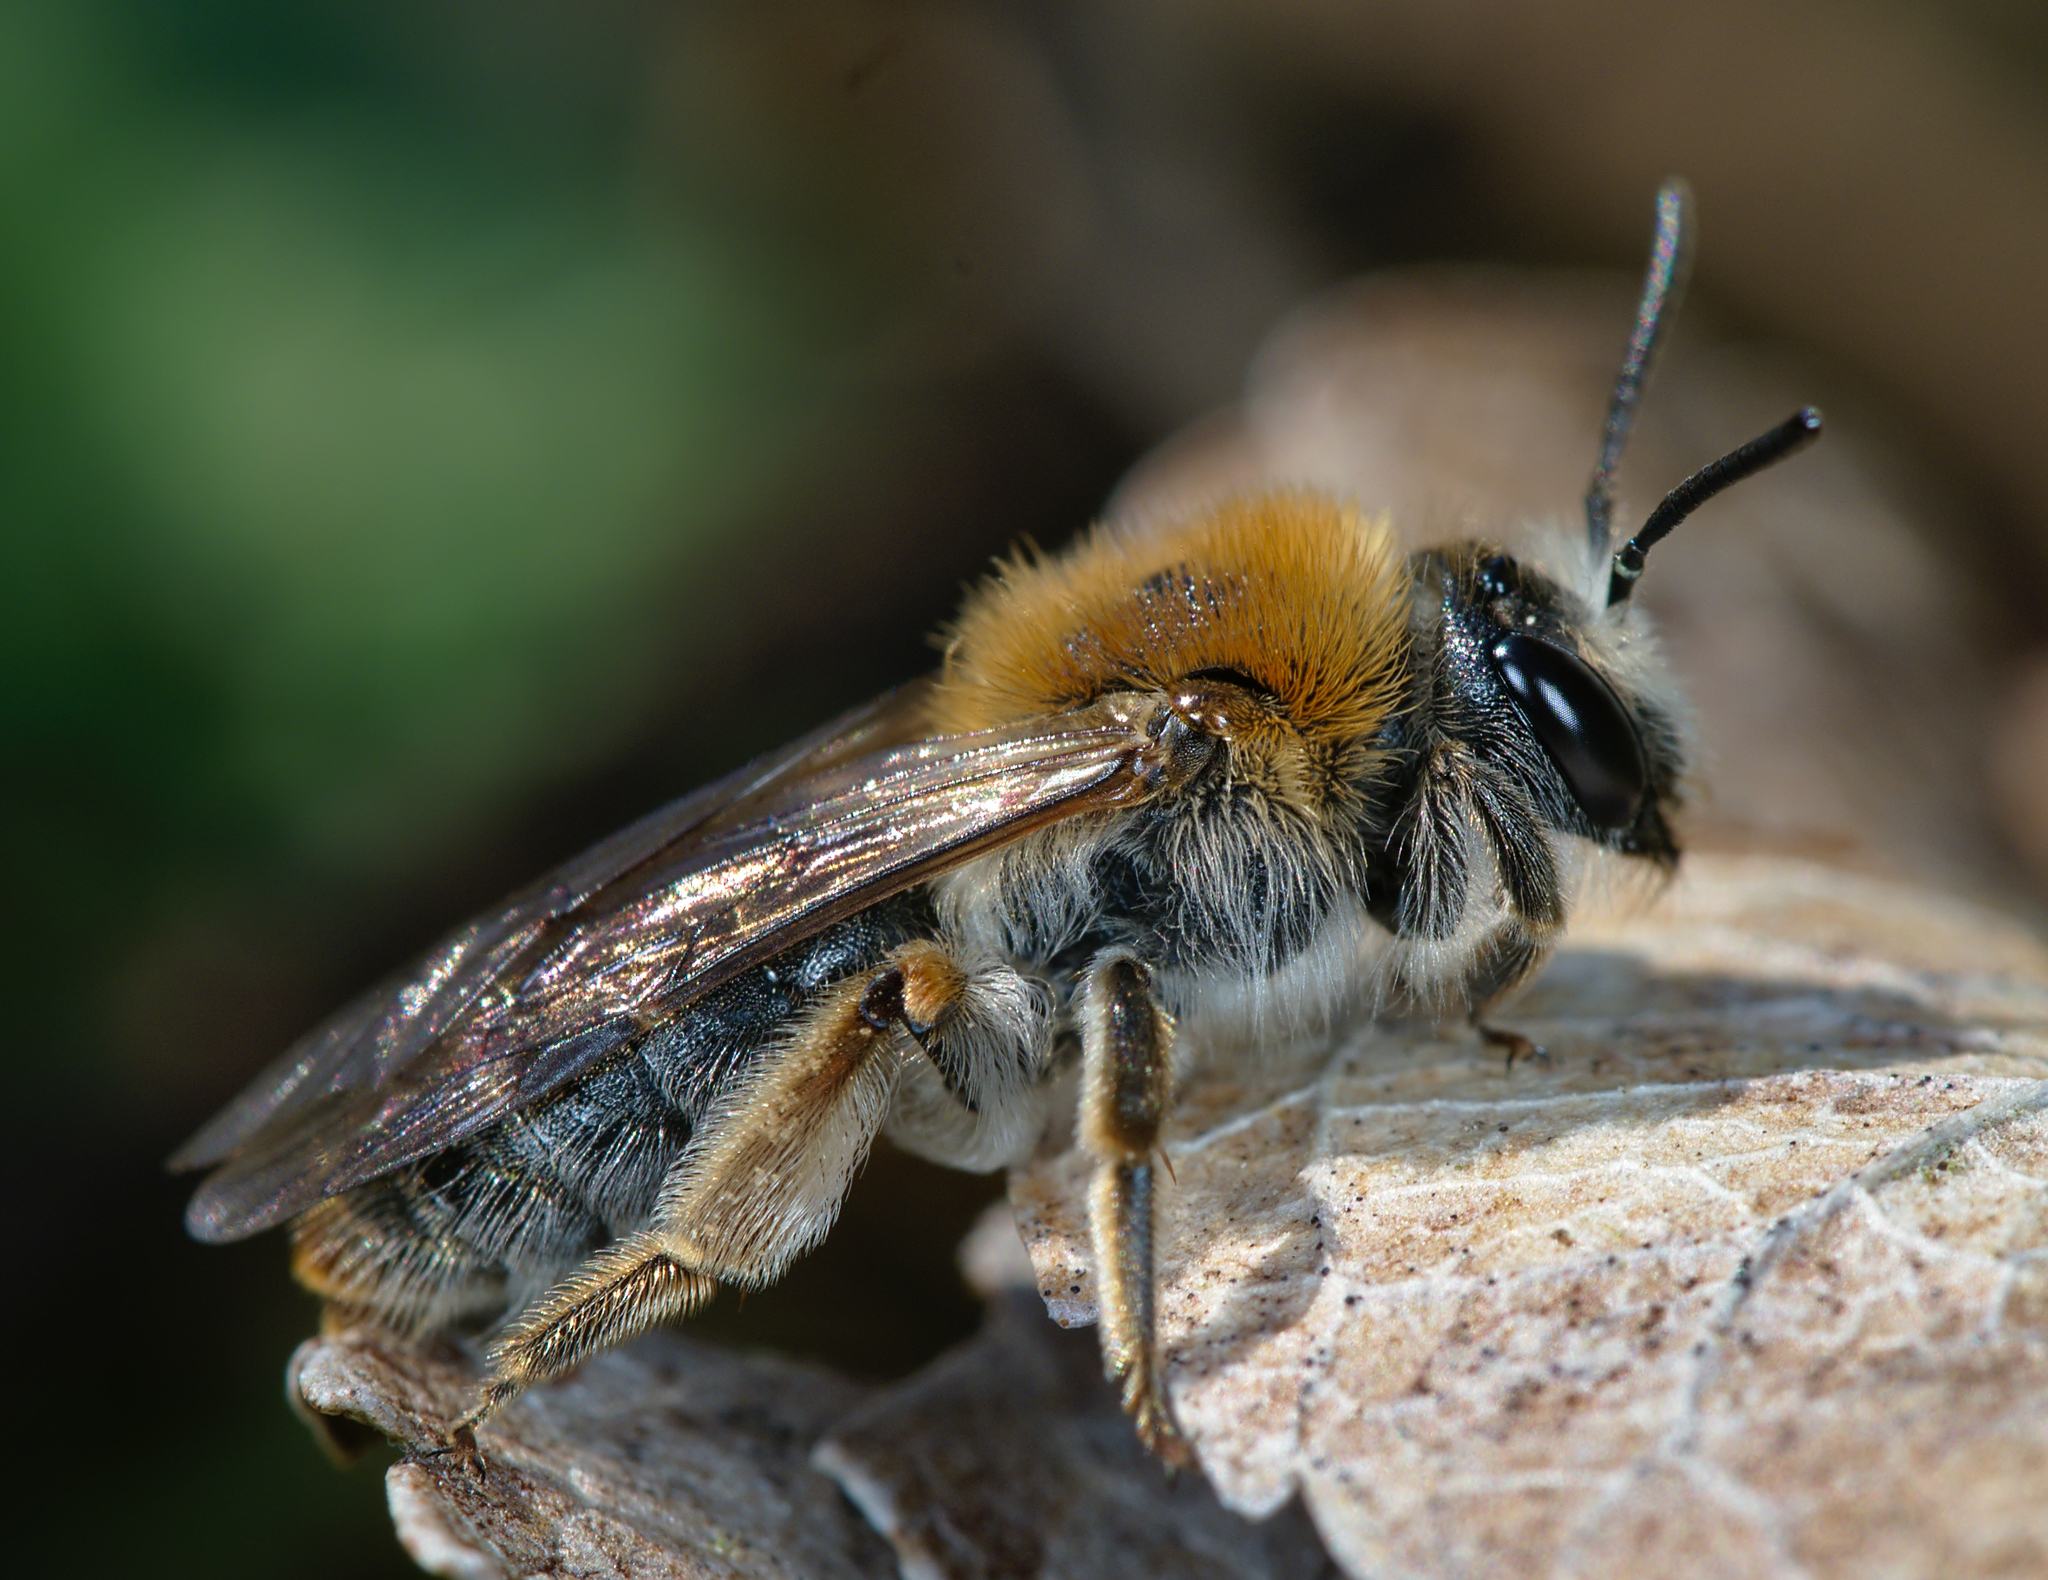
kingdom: Animalia
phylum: Arthropoda
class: Insecta
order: Hymenoptera
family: Andrenidae
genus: Andrena
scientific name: Andrena haemorrhoa
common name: Early mining bee
